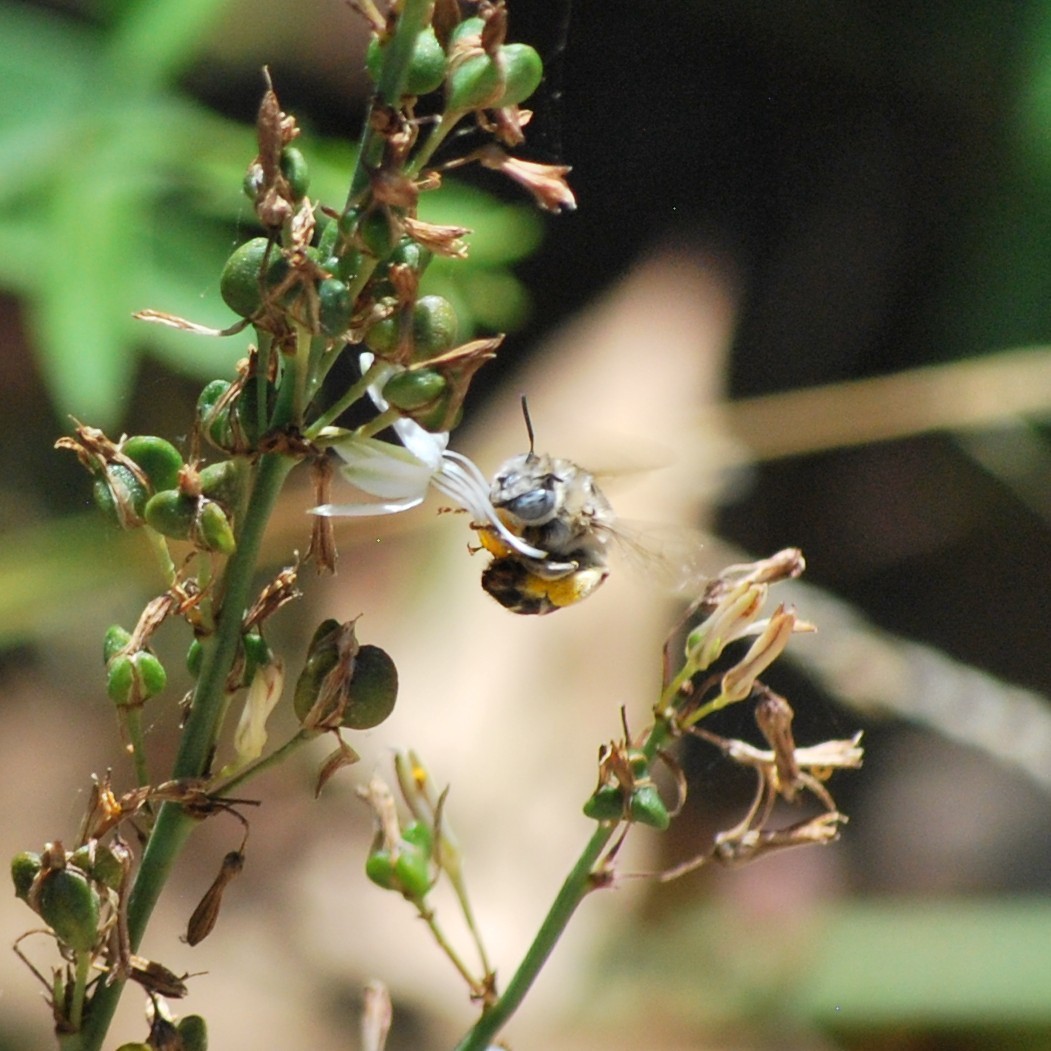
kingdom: Animalia
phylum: Arthropoda
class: Insecta
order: Hymenoptera
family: Apidae
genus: Anthophora
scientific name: Anthophora urbana
